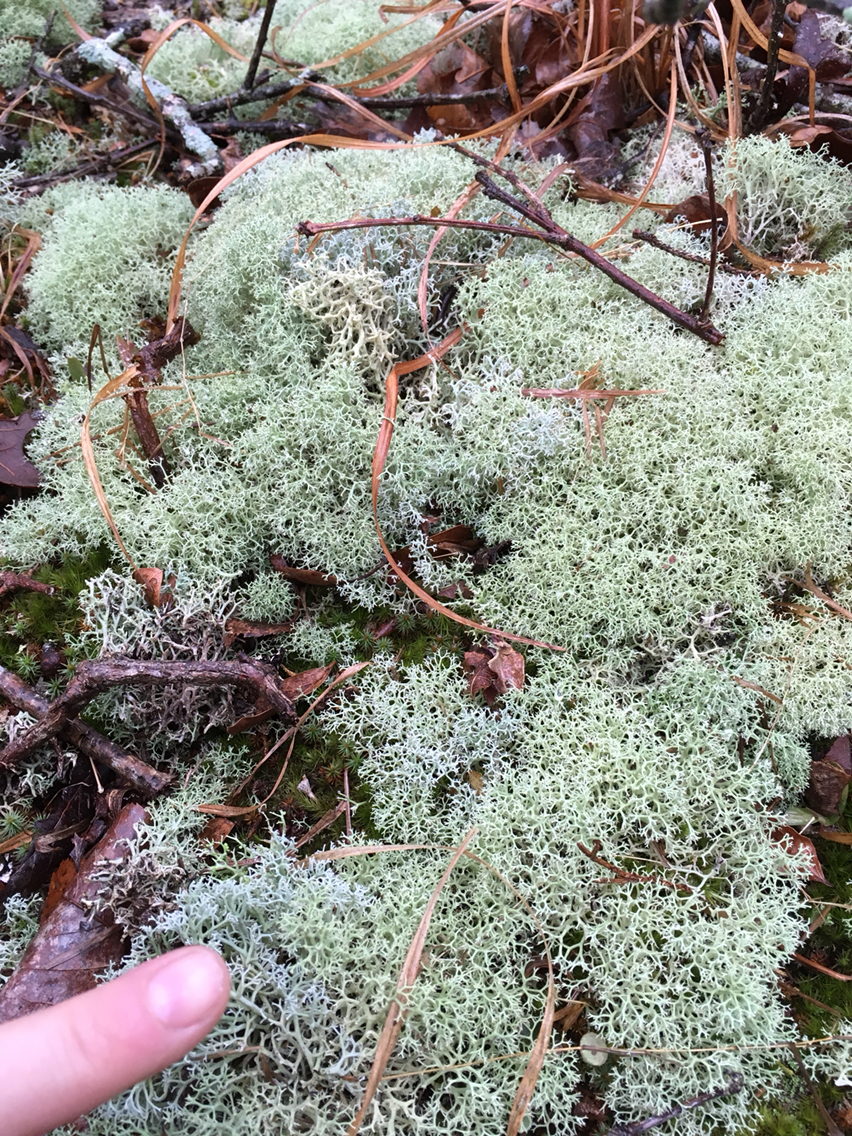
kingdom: Fungi
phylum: Ascomycota
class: Lecanoromycetes
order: Lecanorales
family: Cladoniaceae
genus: Cladonia
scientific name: Cladonia subtenuis
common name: Dixie reindeer lichen
